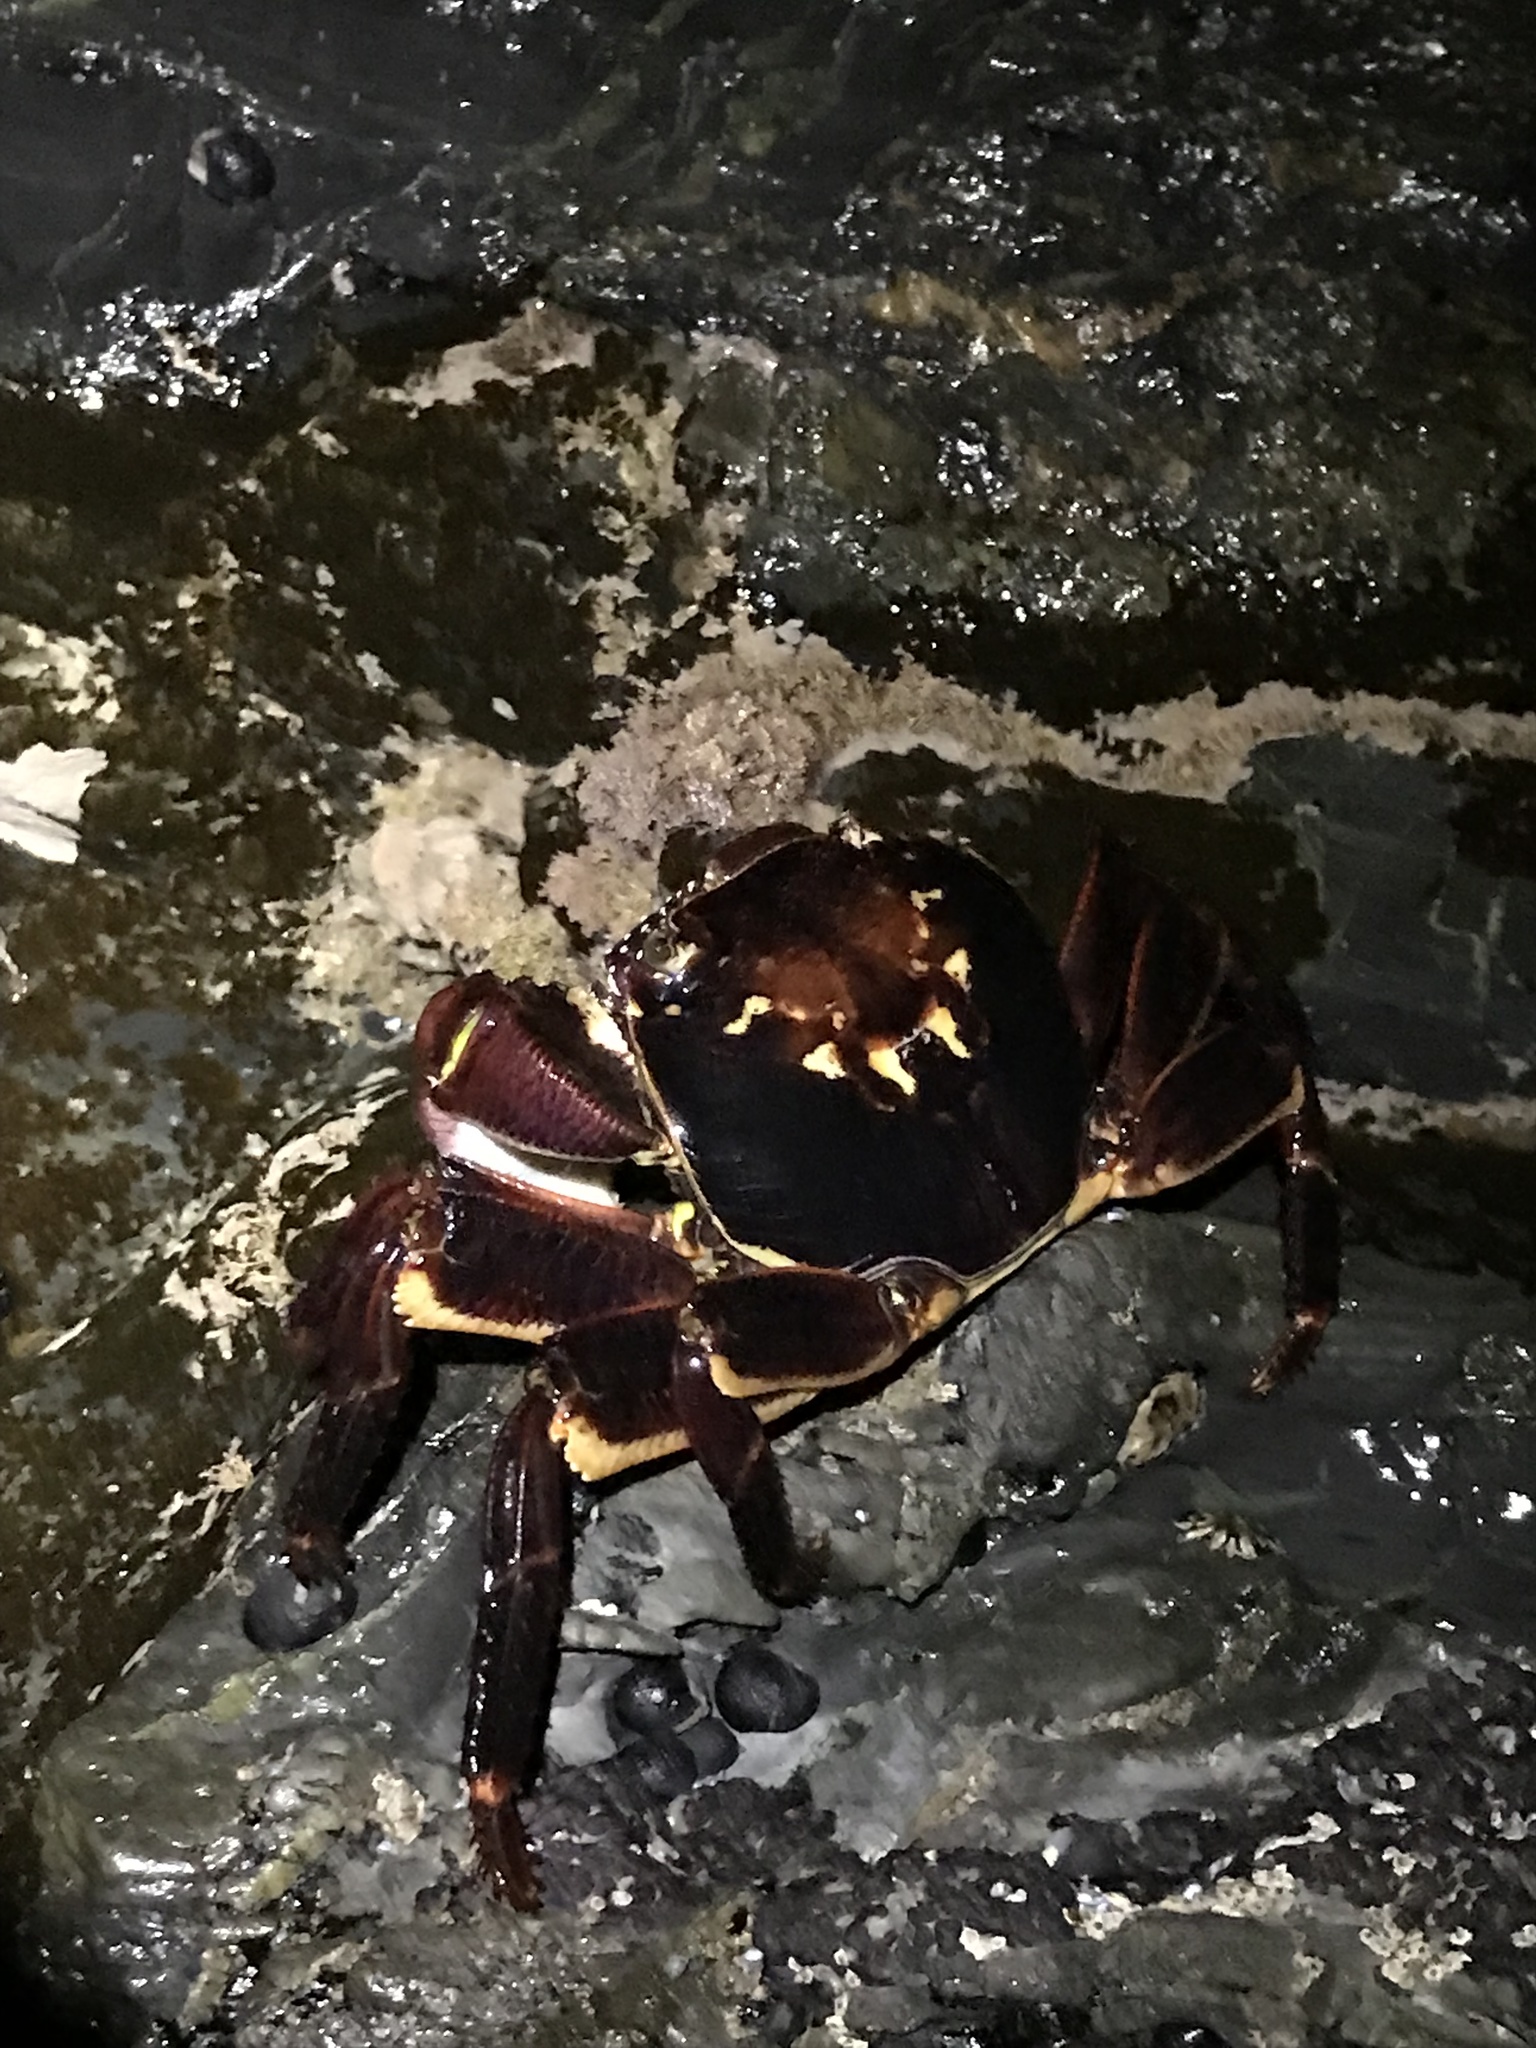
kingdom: Animalia
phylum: Arthropoda
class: Malacostraca
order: Decapoda
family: Grapsidae
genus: Leptograpsus
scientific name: Leptograpsus variegatus
